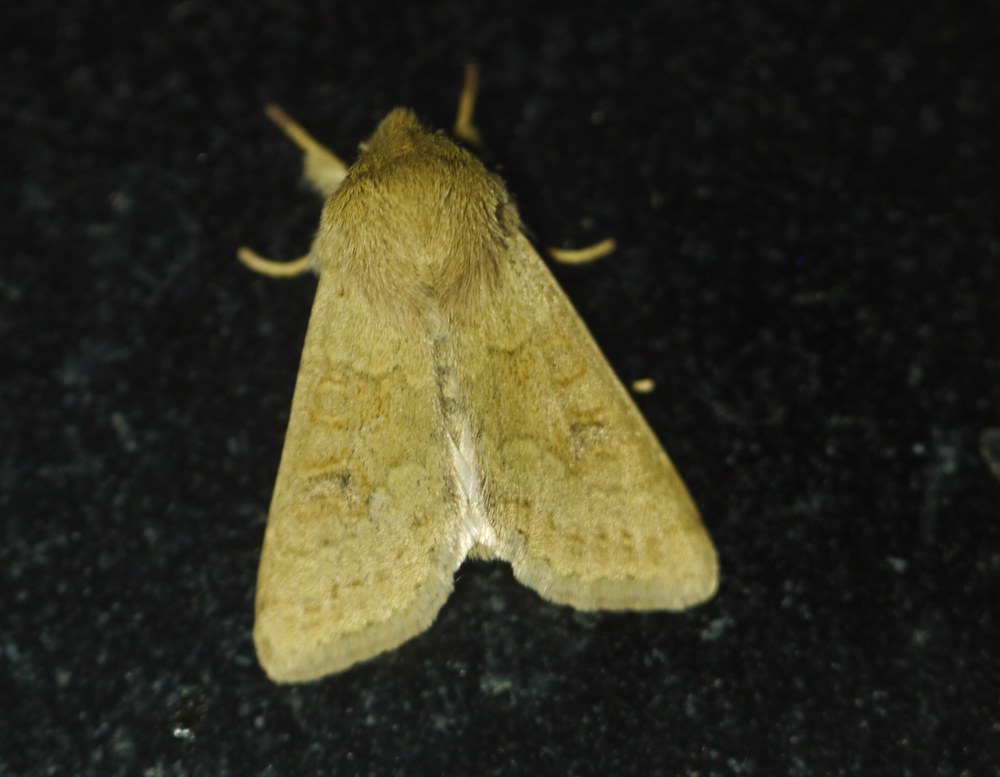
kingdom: Animalia
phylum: Arthropoda
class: Insecta
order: Lepidoptera
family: Noctuidae
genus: Orthosia
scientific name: Orthosia miniosa
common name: Blossom underwing
